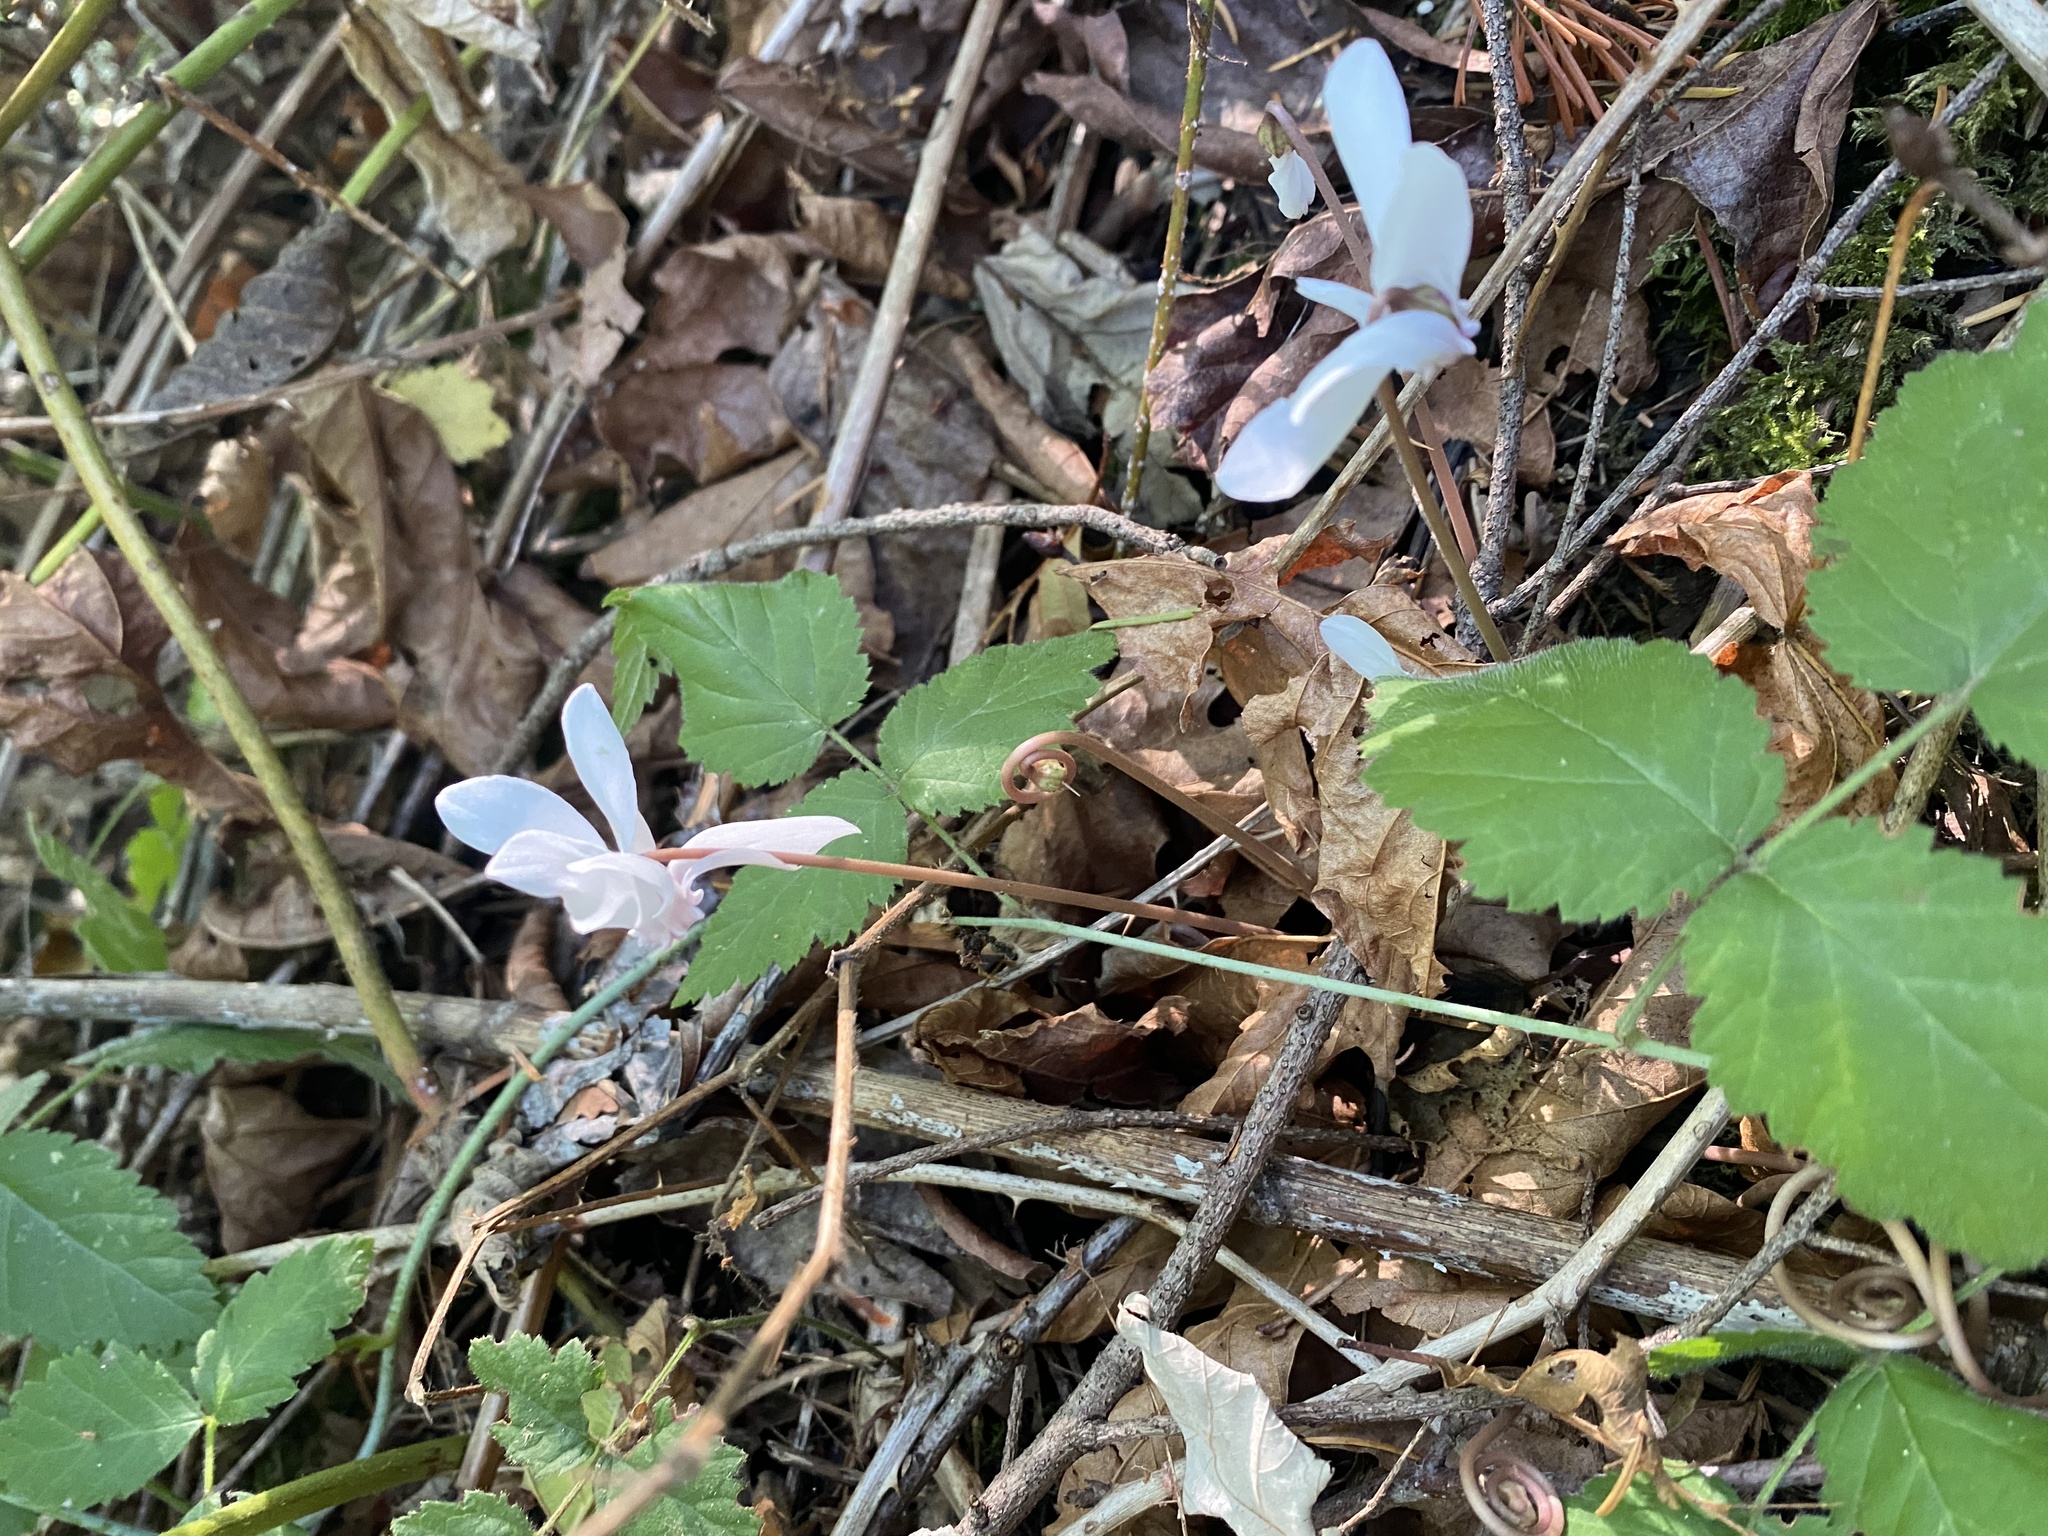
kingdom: Plantae
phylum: Tracheophyta
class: Magnoliopsida
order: Ericales
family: Primulaceae
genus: Cyclamen
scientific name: Cyclamen hederifolium
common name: Sowbread
